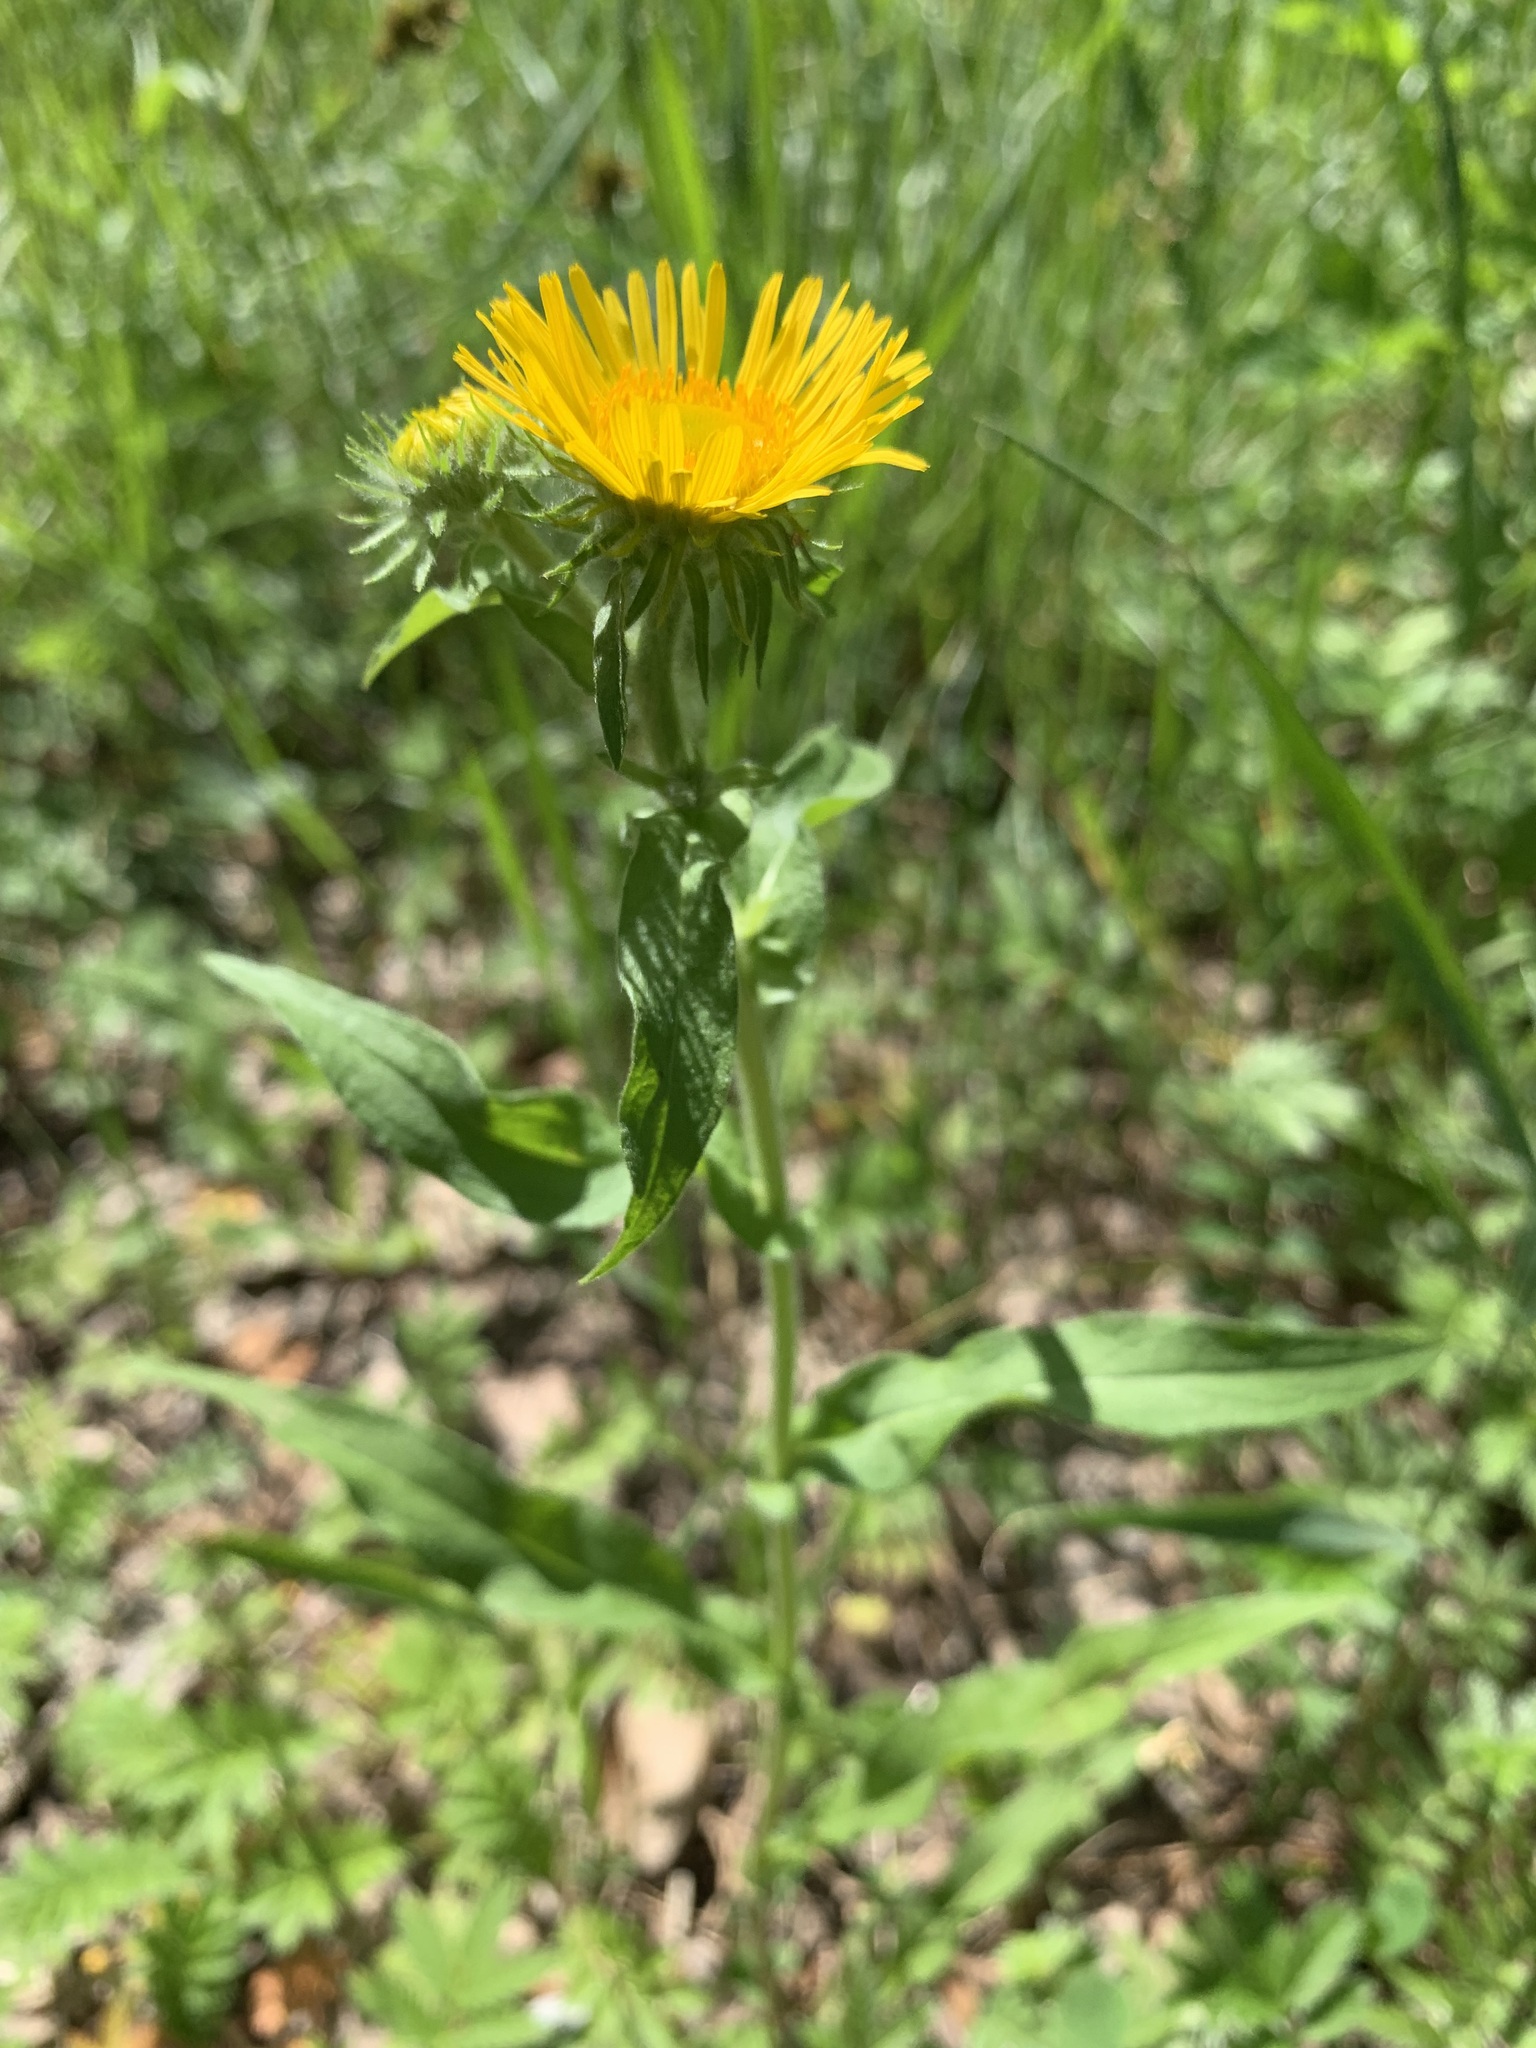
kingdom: Plantae
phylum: Tracheophyta
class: Magnoliopsida
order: Asterales
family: Asteraceae
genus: Pentanema
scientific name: Pentanema britannicum
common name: British elecampane
